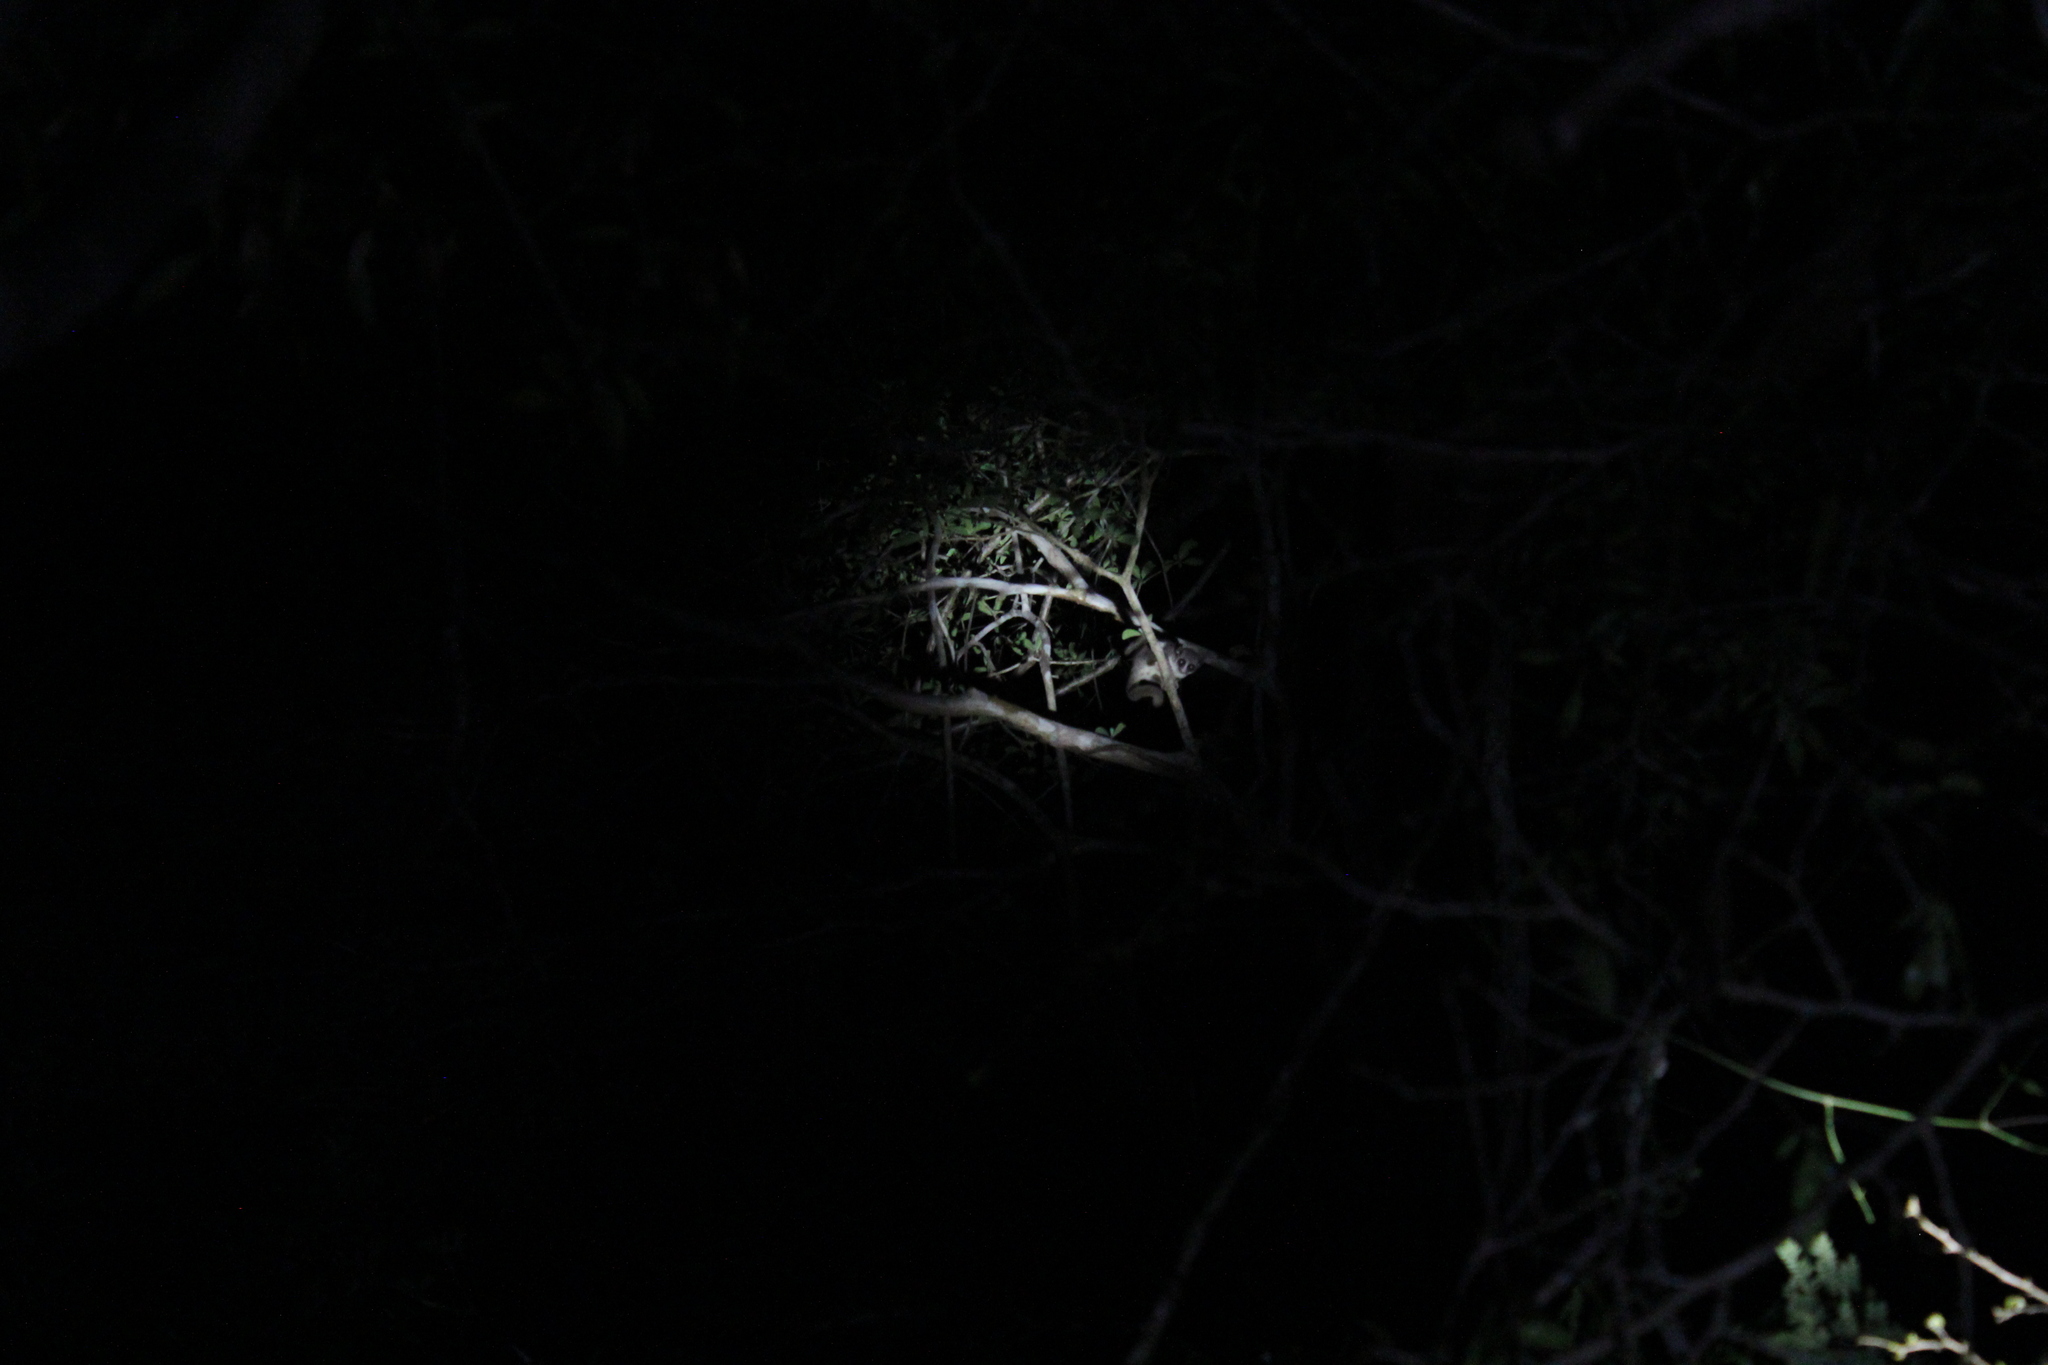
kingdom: Animalia
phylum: Chordata
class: Mammalia
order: Primates
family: Cheirogaleidae
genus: Cheirogaleus
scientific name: Cheirogaleus medius
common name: Fat-tailed dwarf lemur
